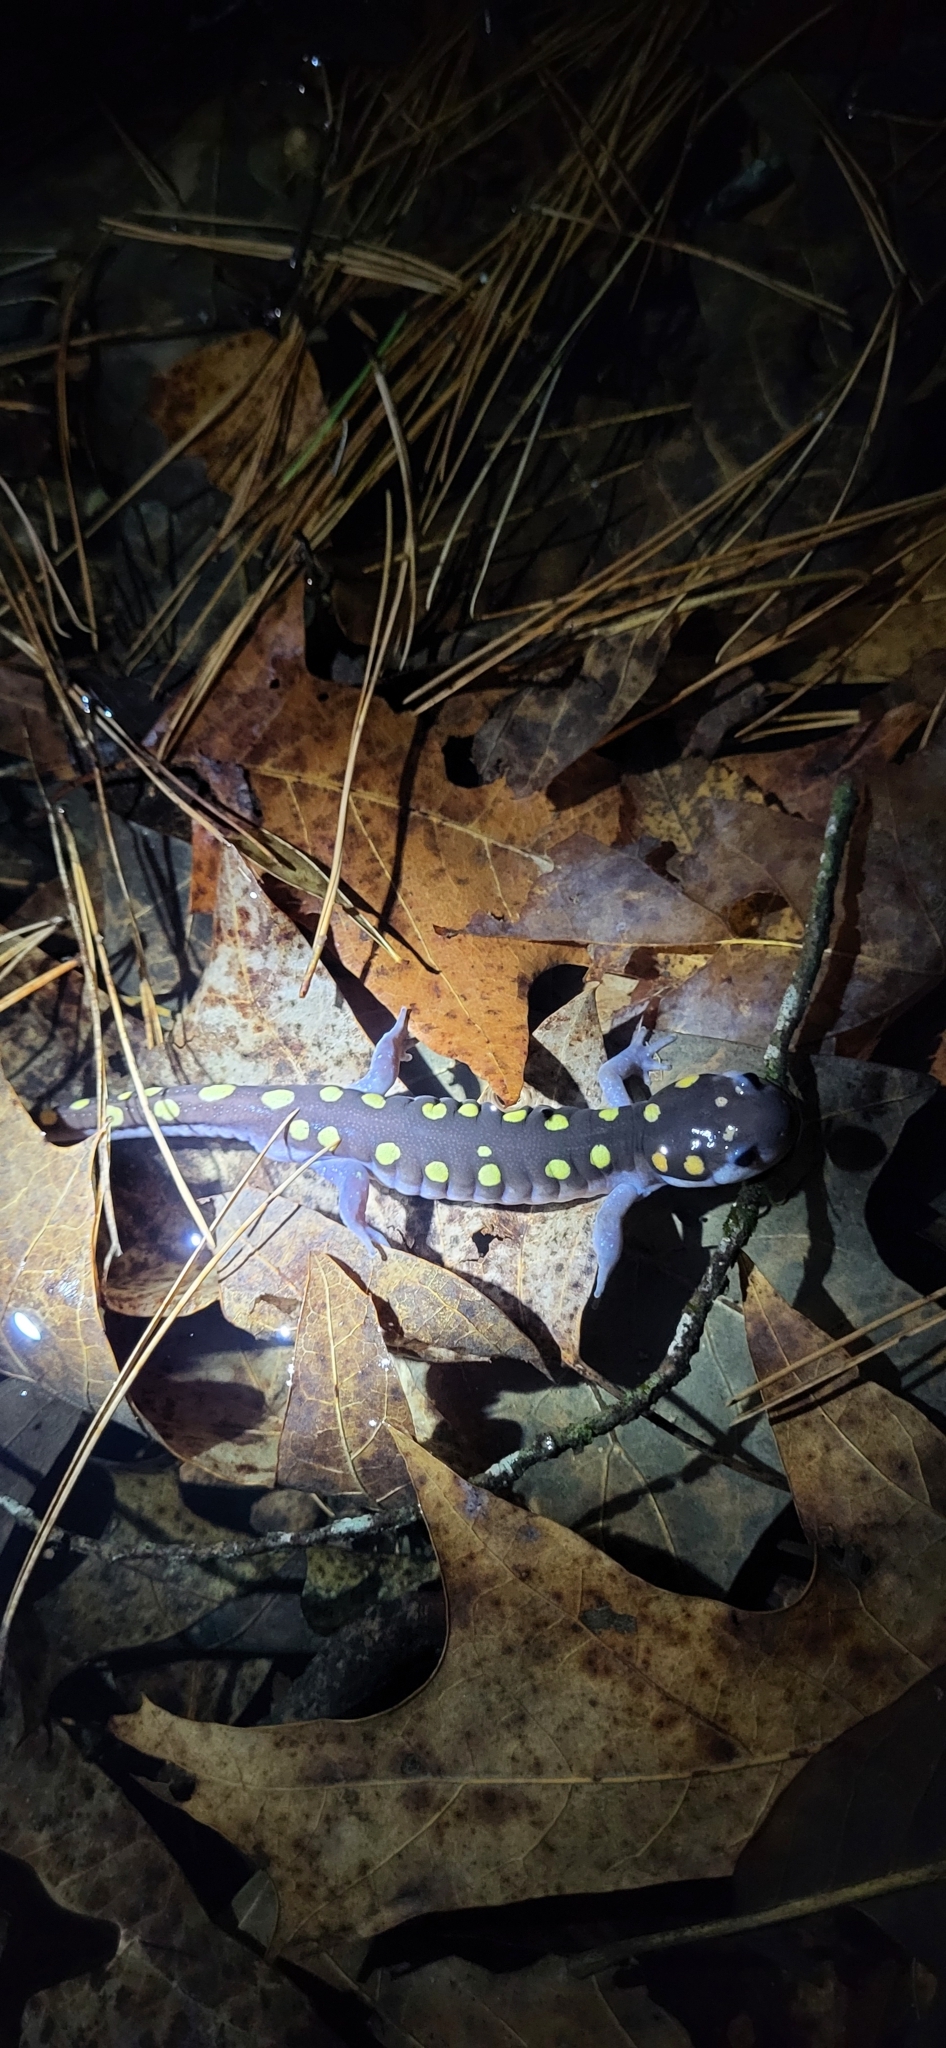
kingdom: Animalia
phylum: Chordata
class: Amphibia
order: Caudata
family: Ambystomatidae
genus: Ambystoma
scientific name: Ambystoma maculatum
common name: Spotted salamander
